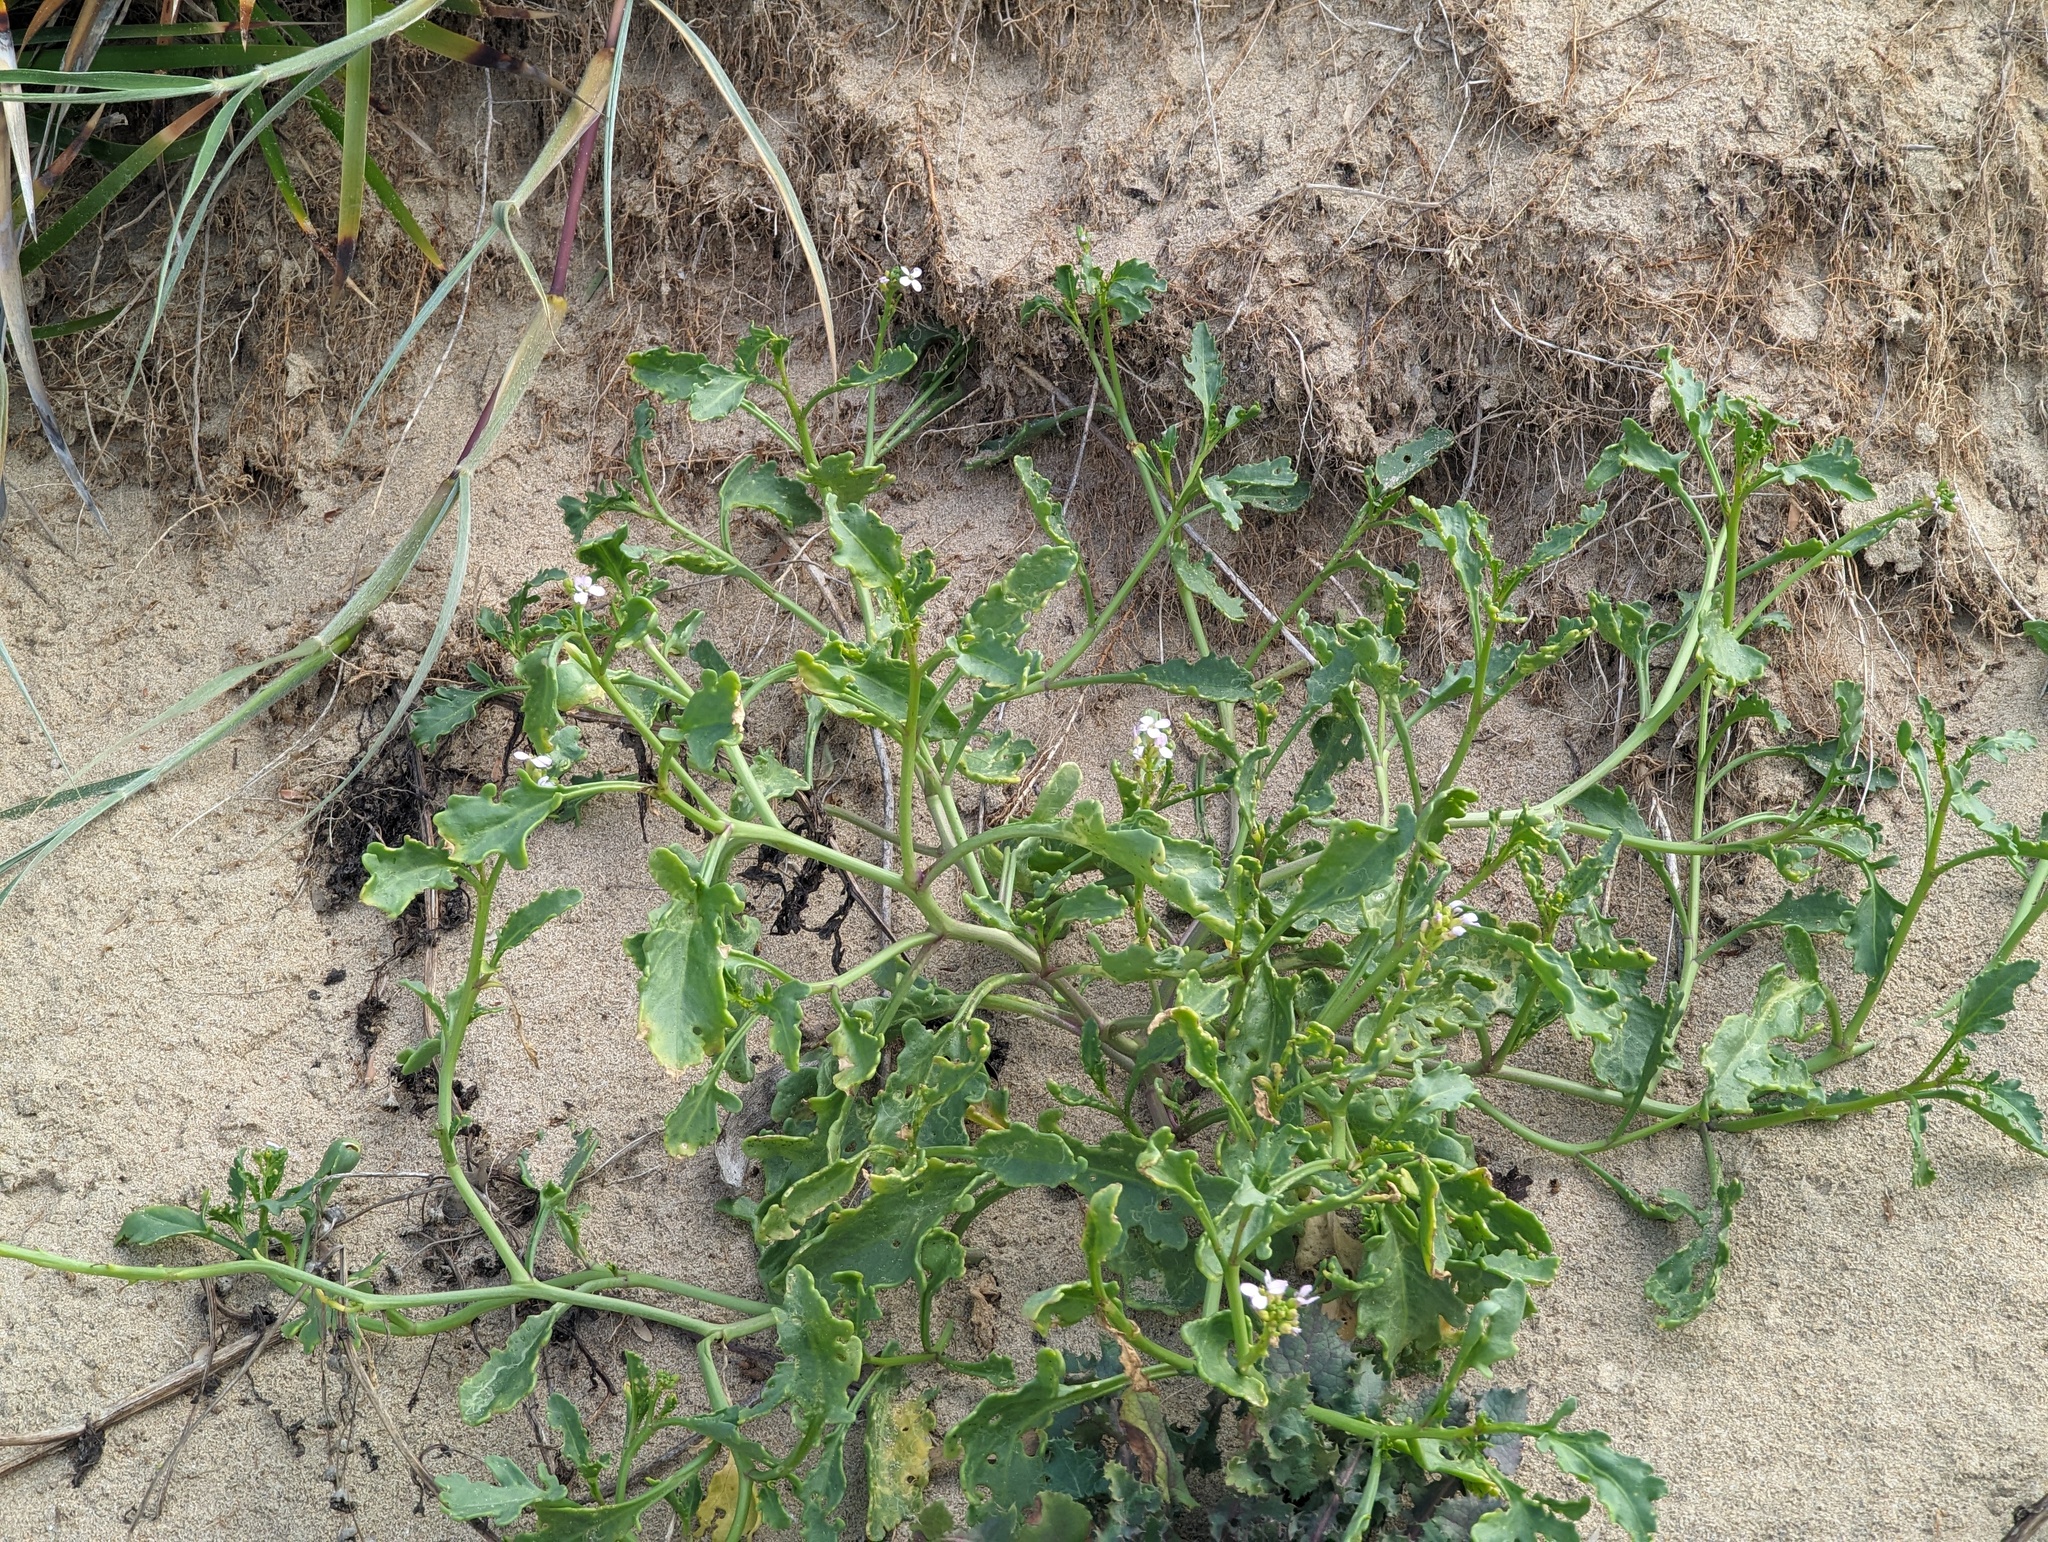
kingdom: Plantae
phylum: Tracheophyta
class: Magnoliopsida
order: Brassicales
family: Brassicaceae
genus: Cakile
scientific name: Cakile maritima
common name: Sea rocket
